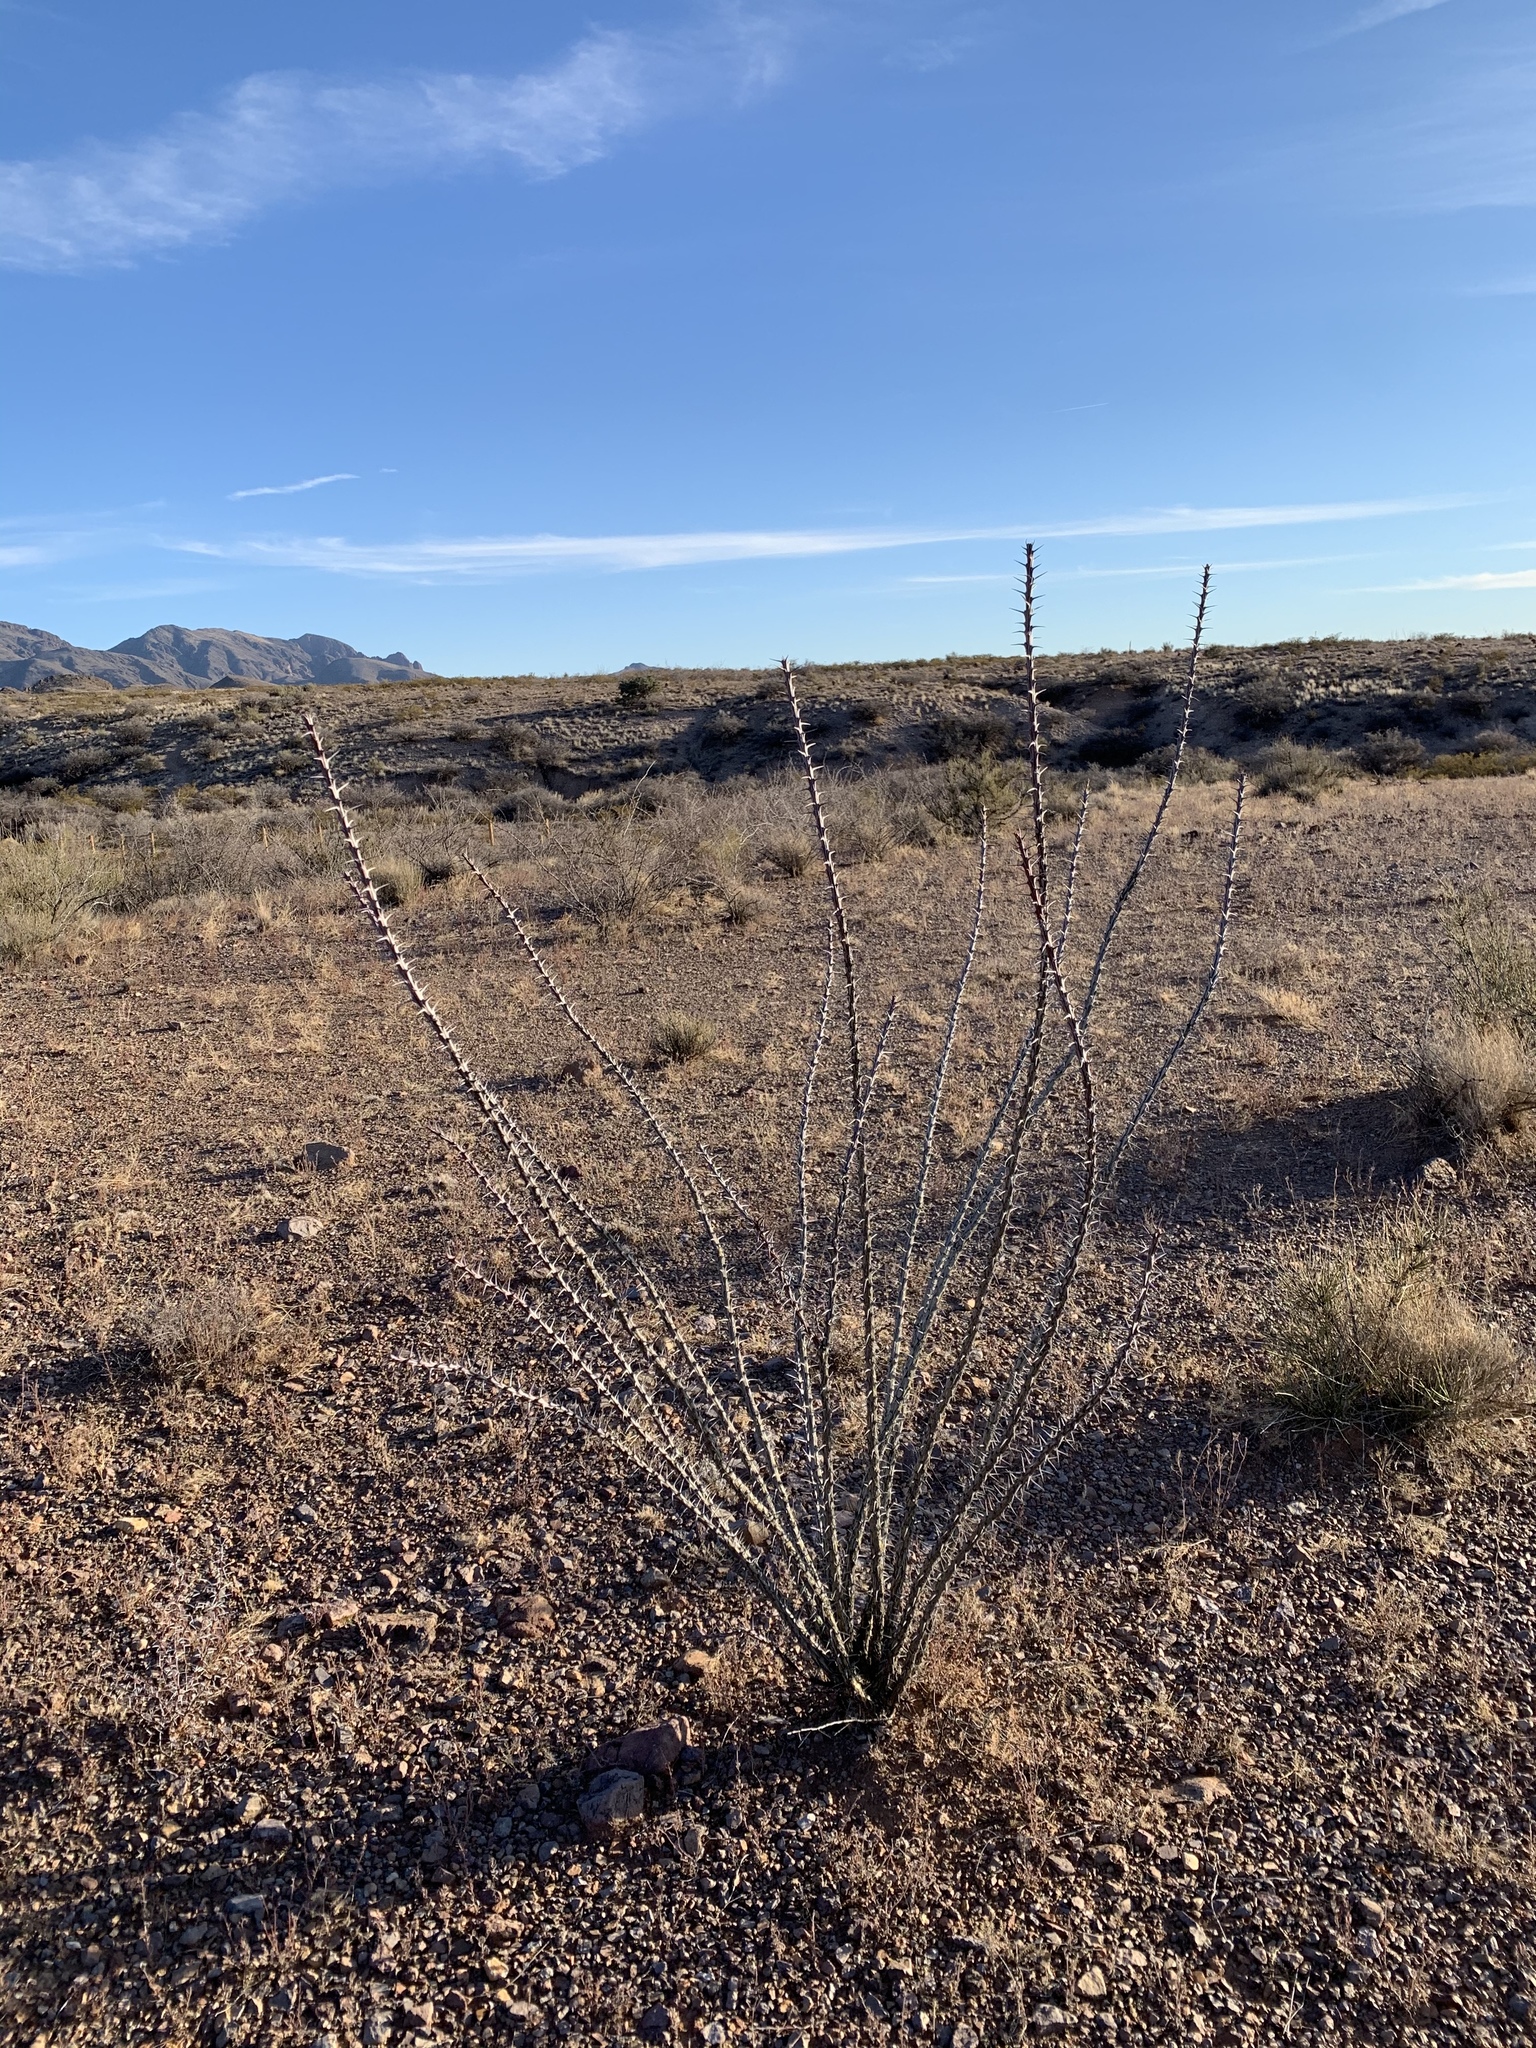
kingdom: Plantae
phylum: Tracheophyta
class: Magnoliopsida
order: Ericales
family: Fouquieriaceae
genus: Fouquieria
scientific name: Fouquieria splendens
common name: Vine-cactus
